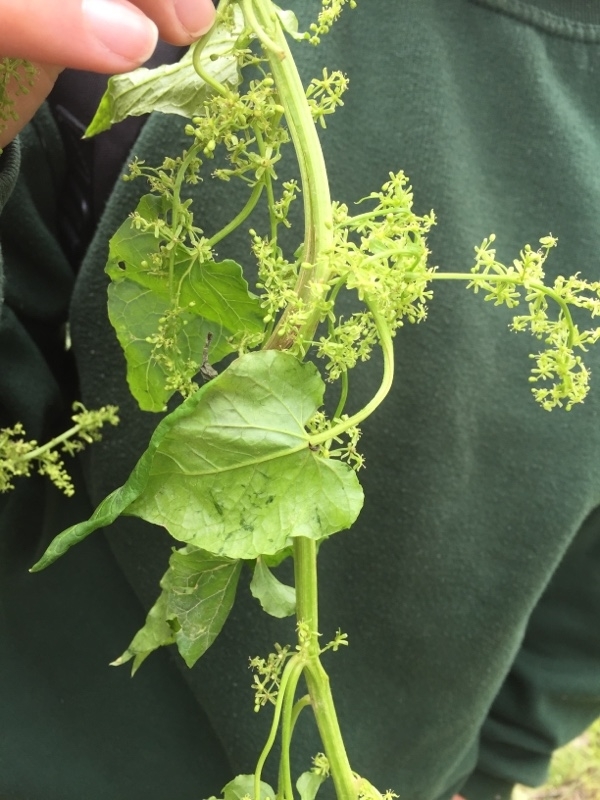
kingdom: Plantae
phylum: Tracheophyta
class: Magnoliopsida
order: Caryophyllales
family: Amaranthaceae
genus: Hablitzia
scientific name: Hablitzia tamnoides
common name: Caucasian-spinach
